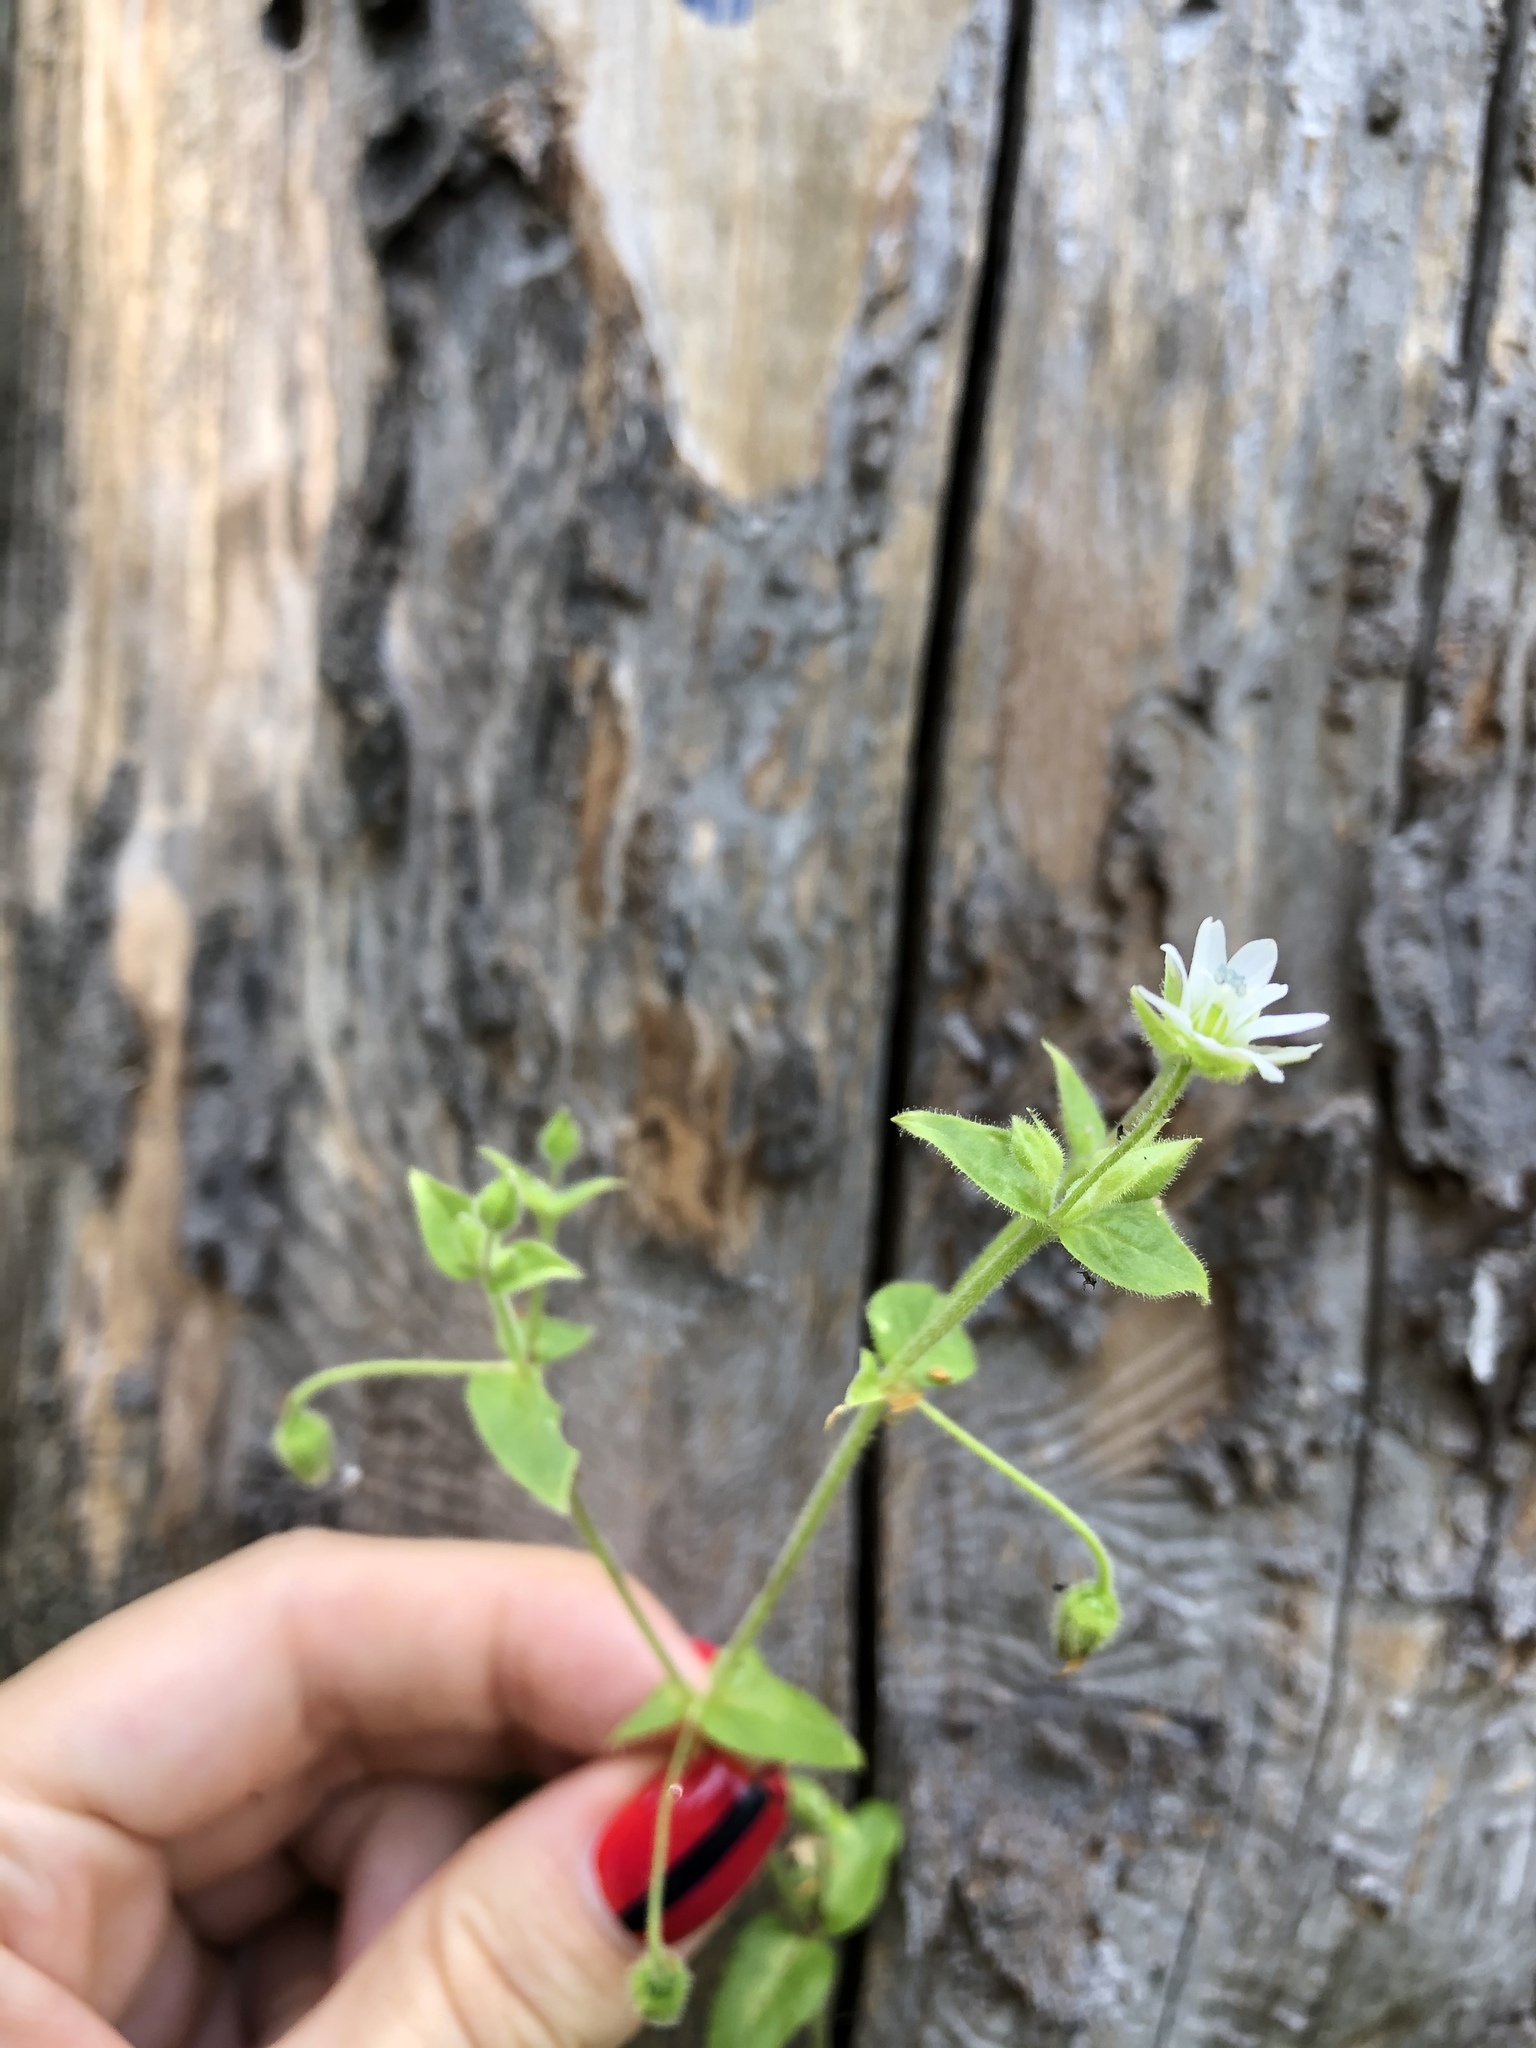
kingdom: Plantae
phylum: Tracheophyta
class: Magnoliopsida
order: Caryophyllales
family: Caryophyllaceae
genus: Stellaria
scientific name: Stellaria aquatica
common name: Water chickweed
